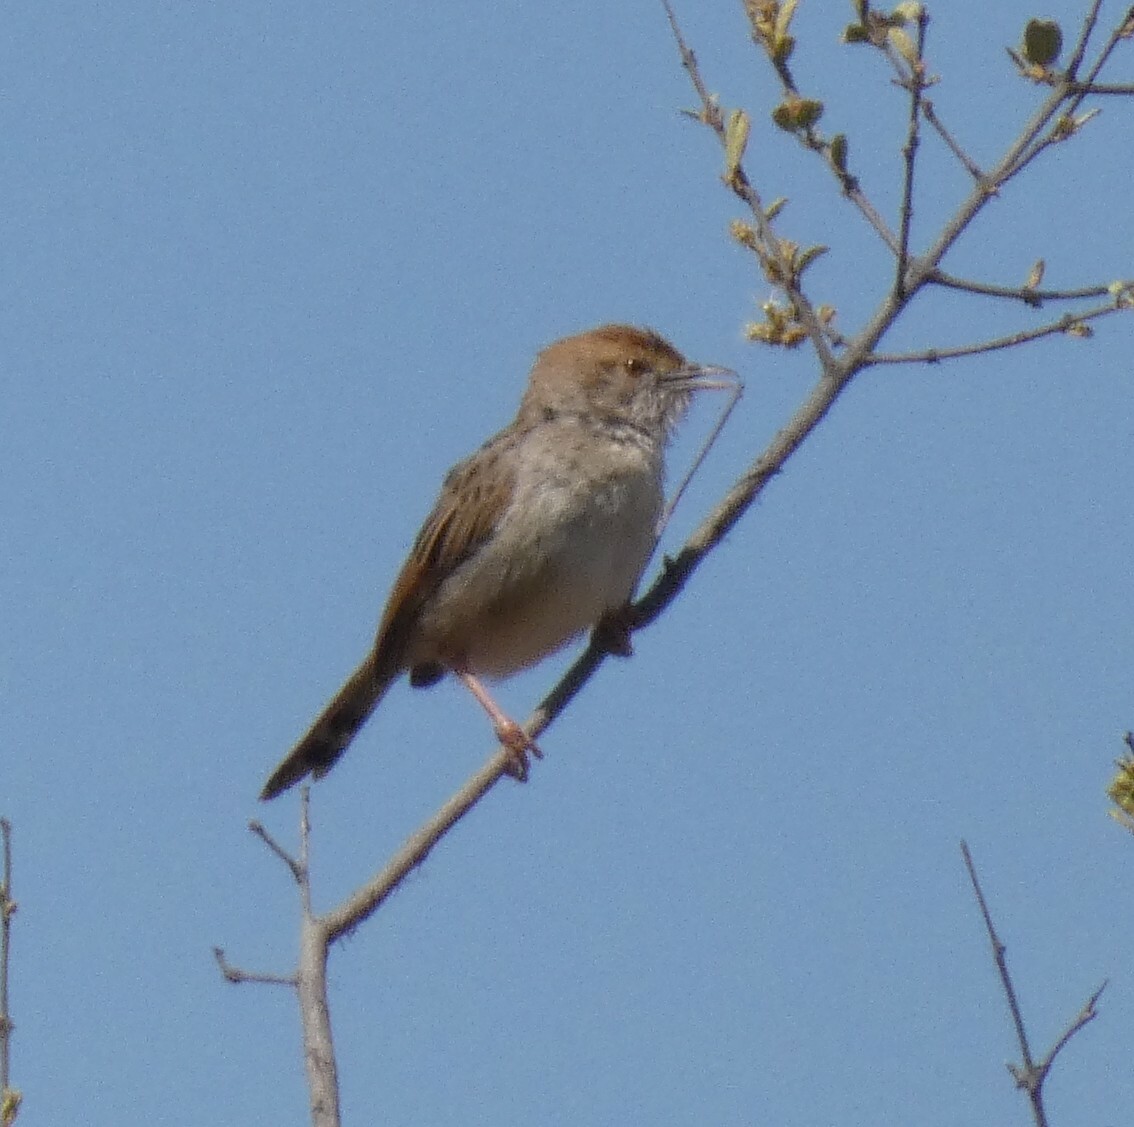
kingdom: Animalia
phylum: Chordata
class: Aves
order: Passeriformes
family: Cisticolidae
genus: Cisticola
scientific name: Cisticola chiniana
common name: Rattling cisticola
